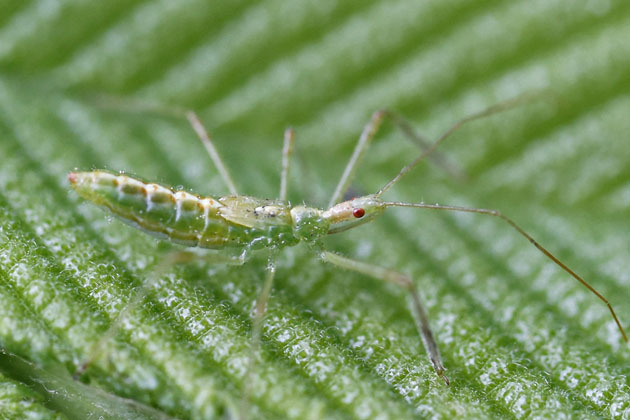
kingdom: Animalia
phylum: Arthropoda
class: Insecta
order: Hemiptera
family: Reduviidae
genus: Zelus
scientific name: Zelus luridus
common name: Pale green assassin bug
